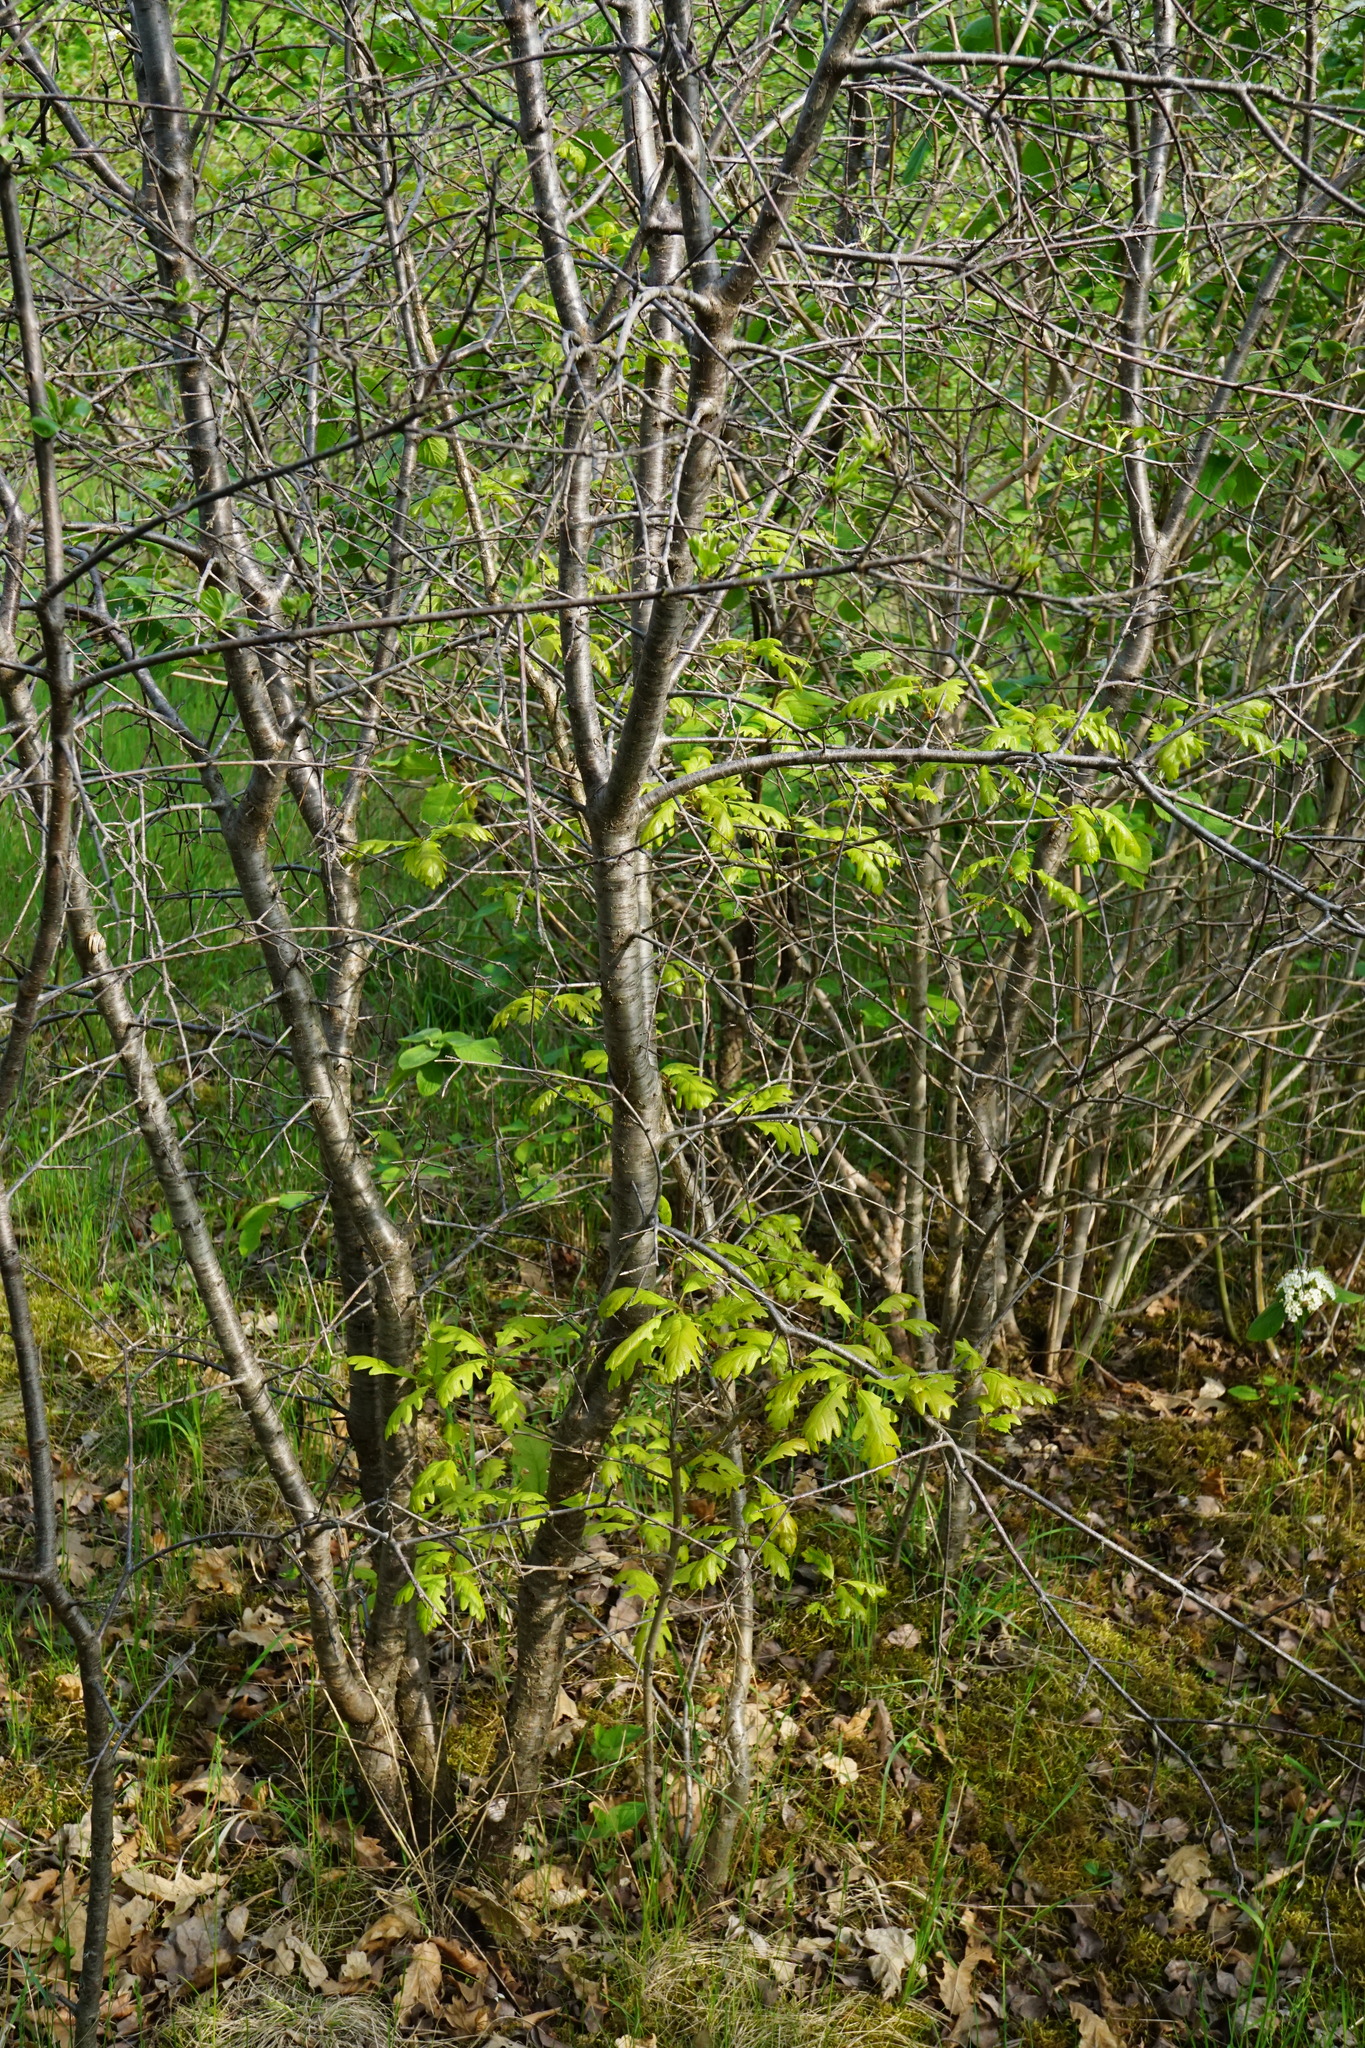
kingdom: Plantae
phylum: Tracheophyta
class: Magnoliopsida
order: Fagales
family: Fagaceae
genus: Quercus
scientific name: Quercus petraea
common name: Sessile oak
